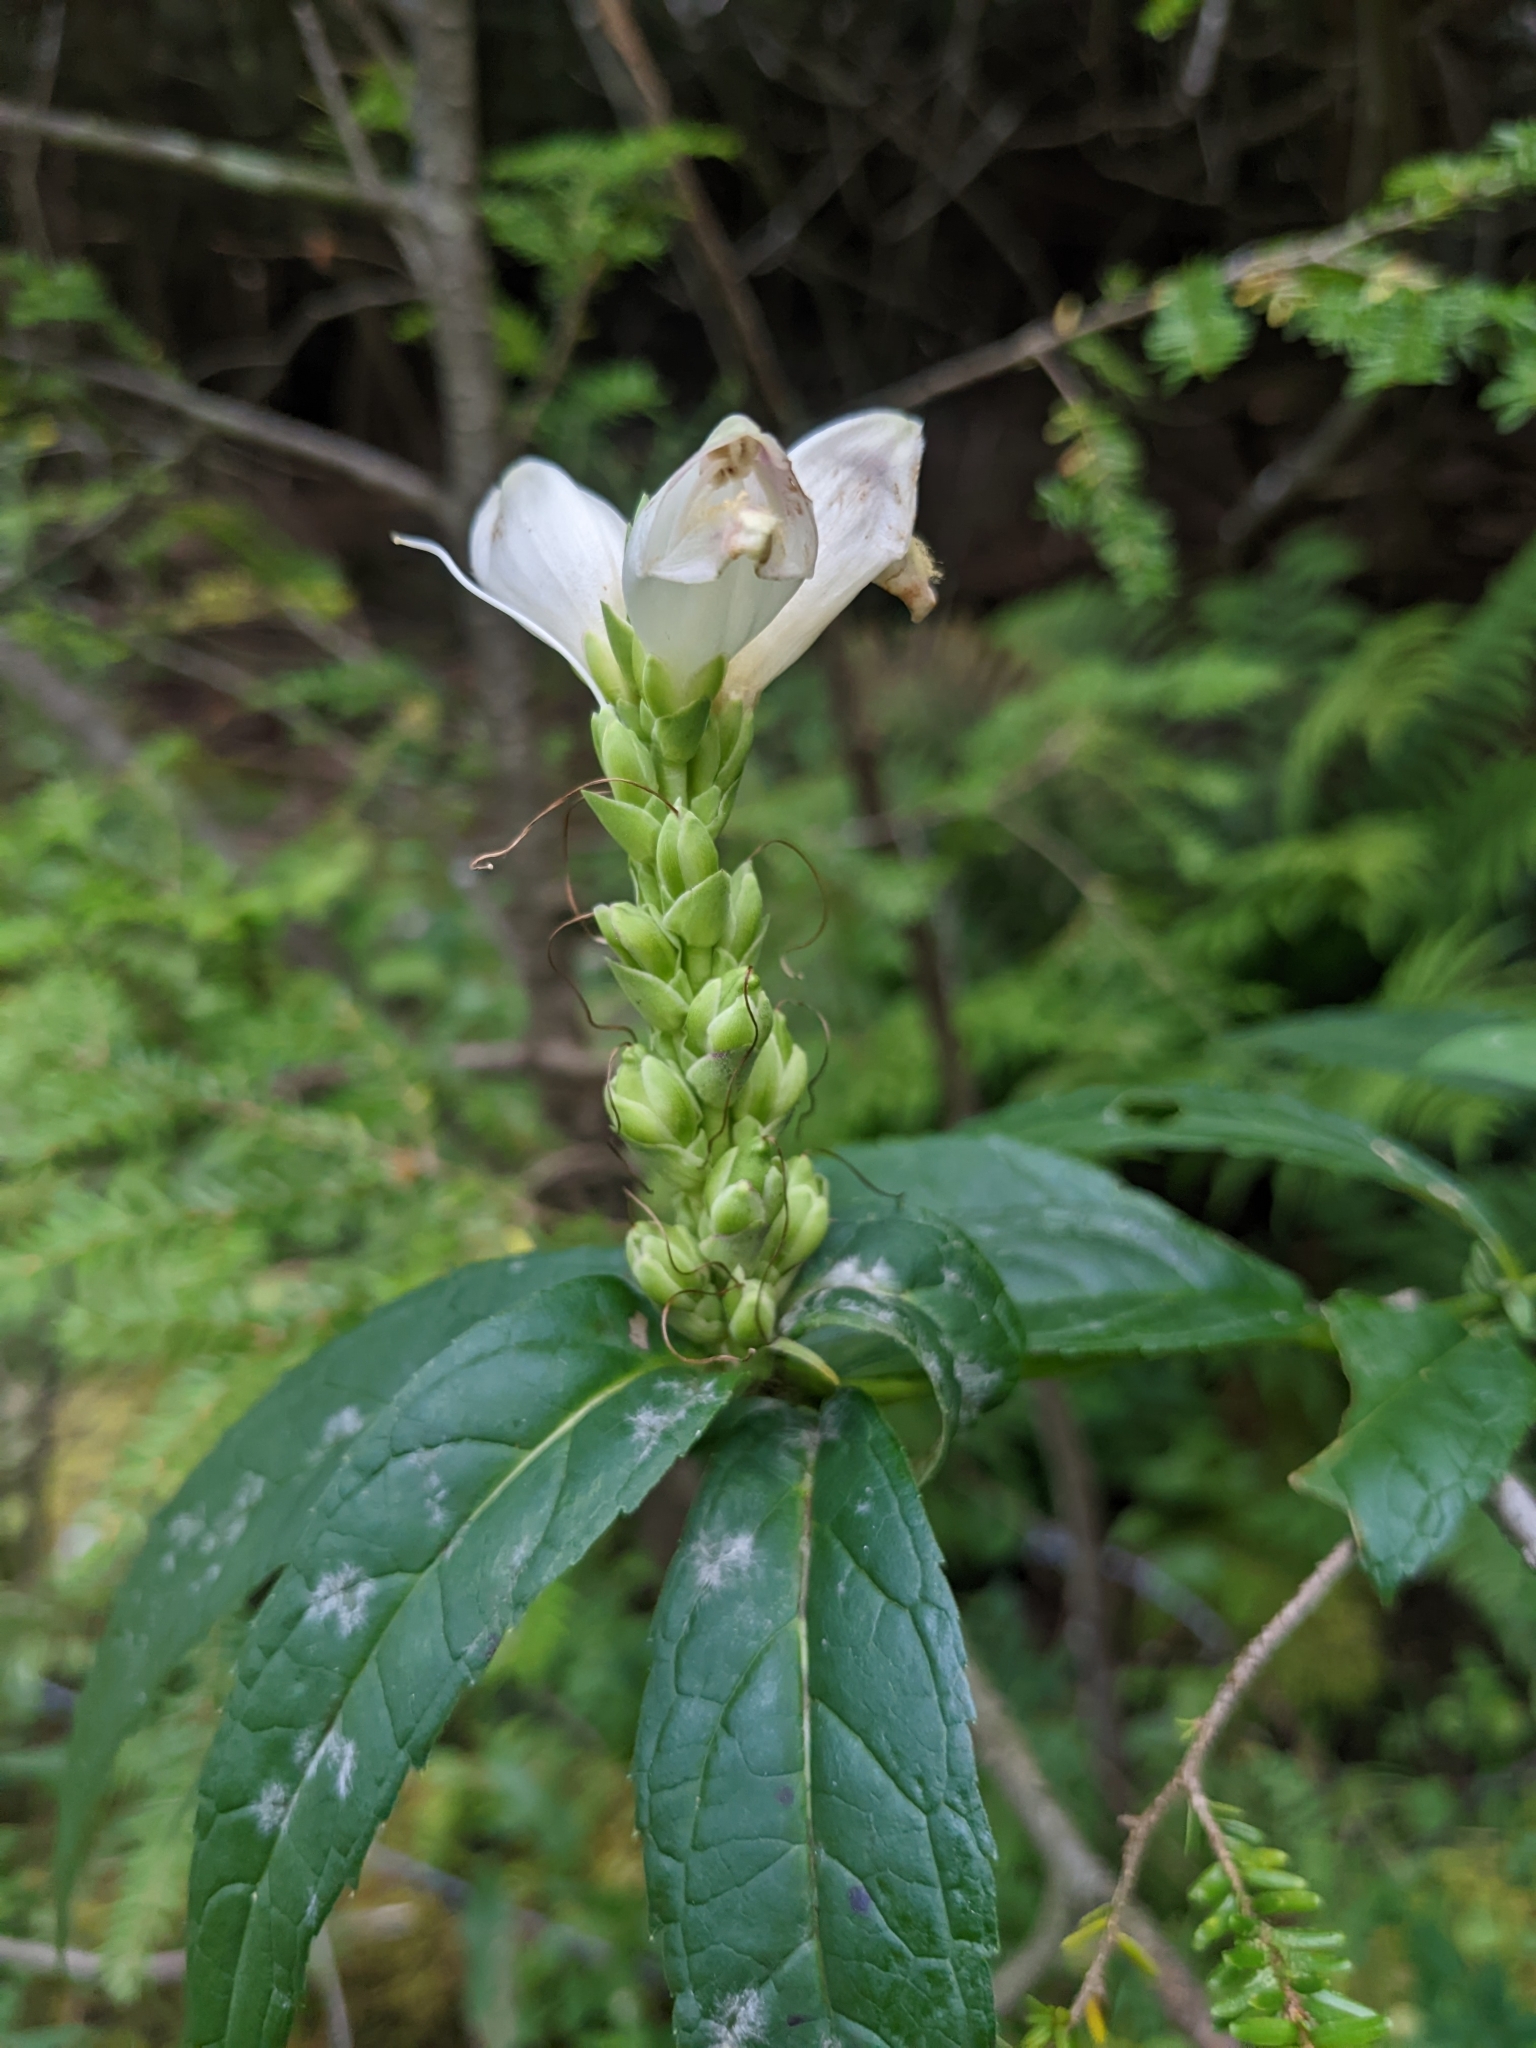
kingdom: Plantae
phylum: Tracheophyta
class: Magnoliopsida
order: Lamiales
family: Plantaginaceae
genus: Chelone
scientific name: Chelone glabra
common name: Snakehead
